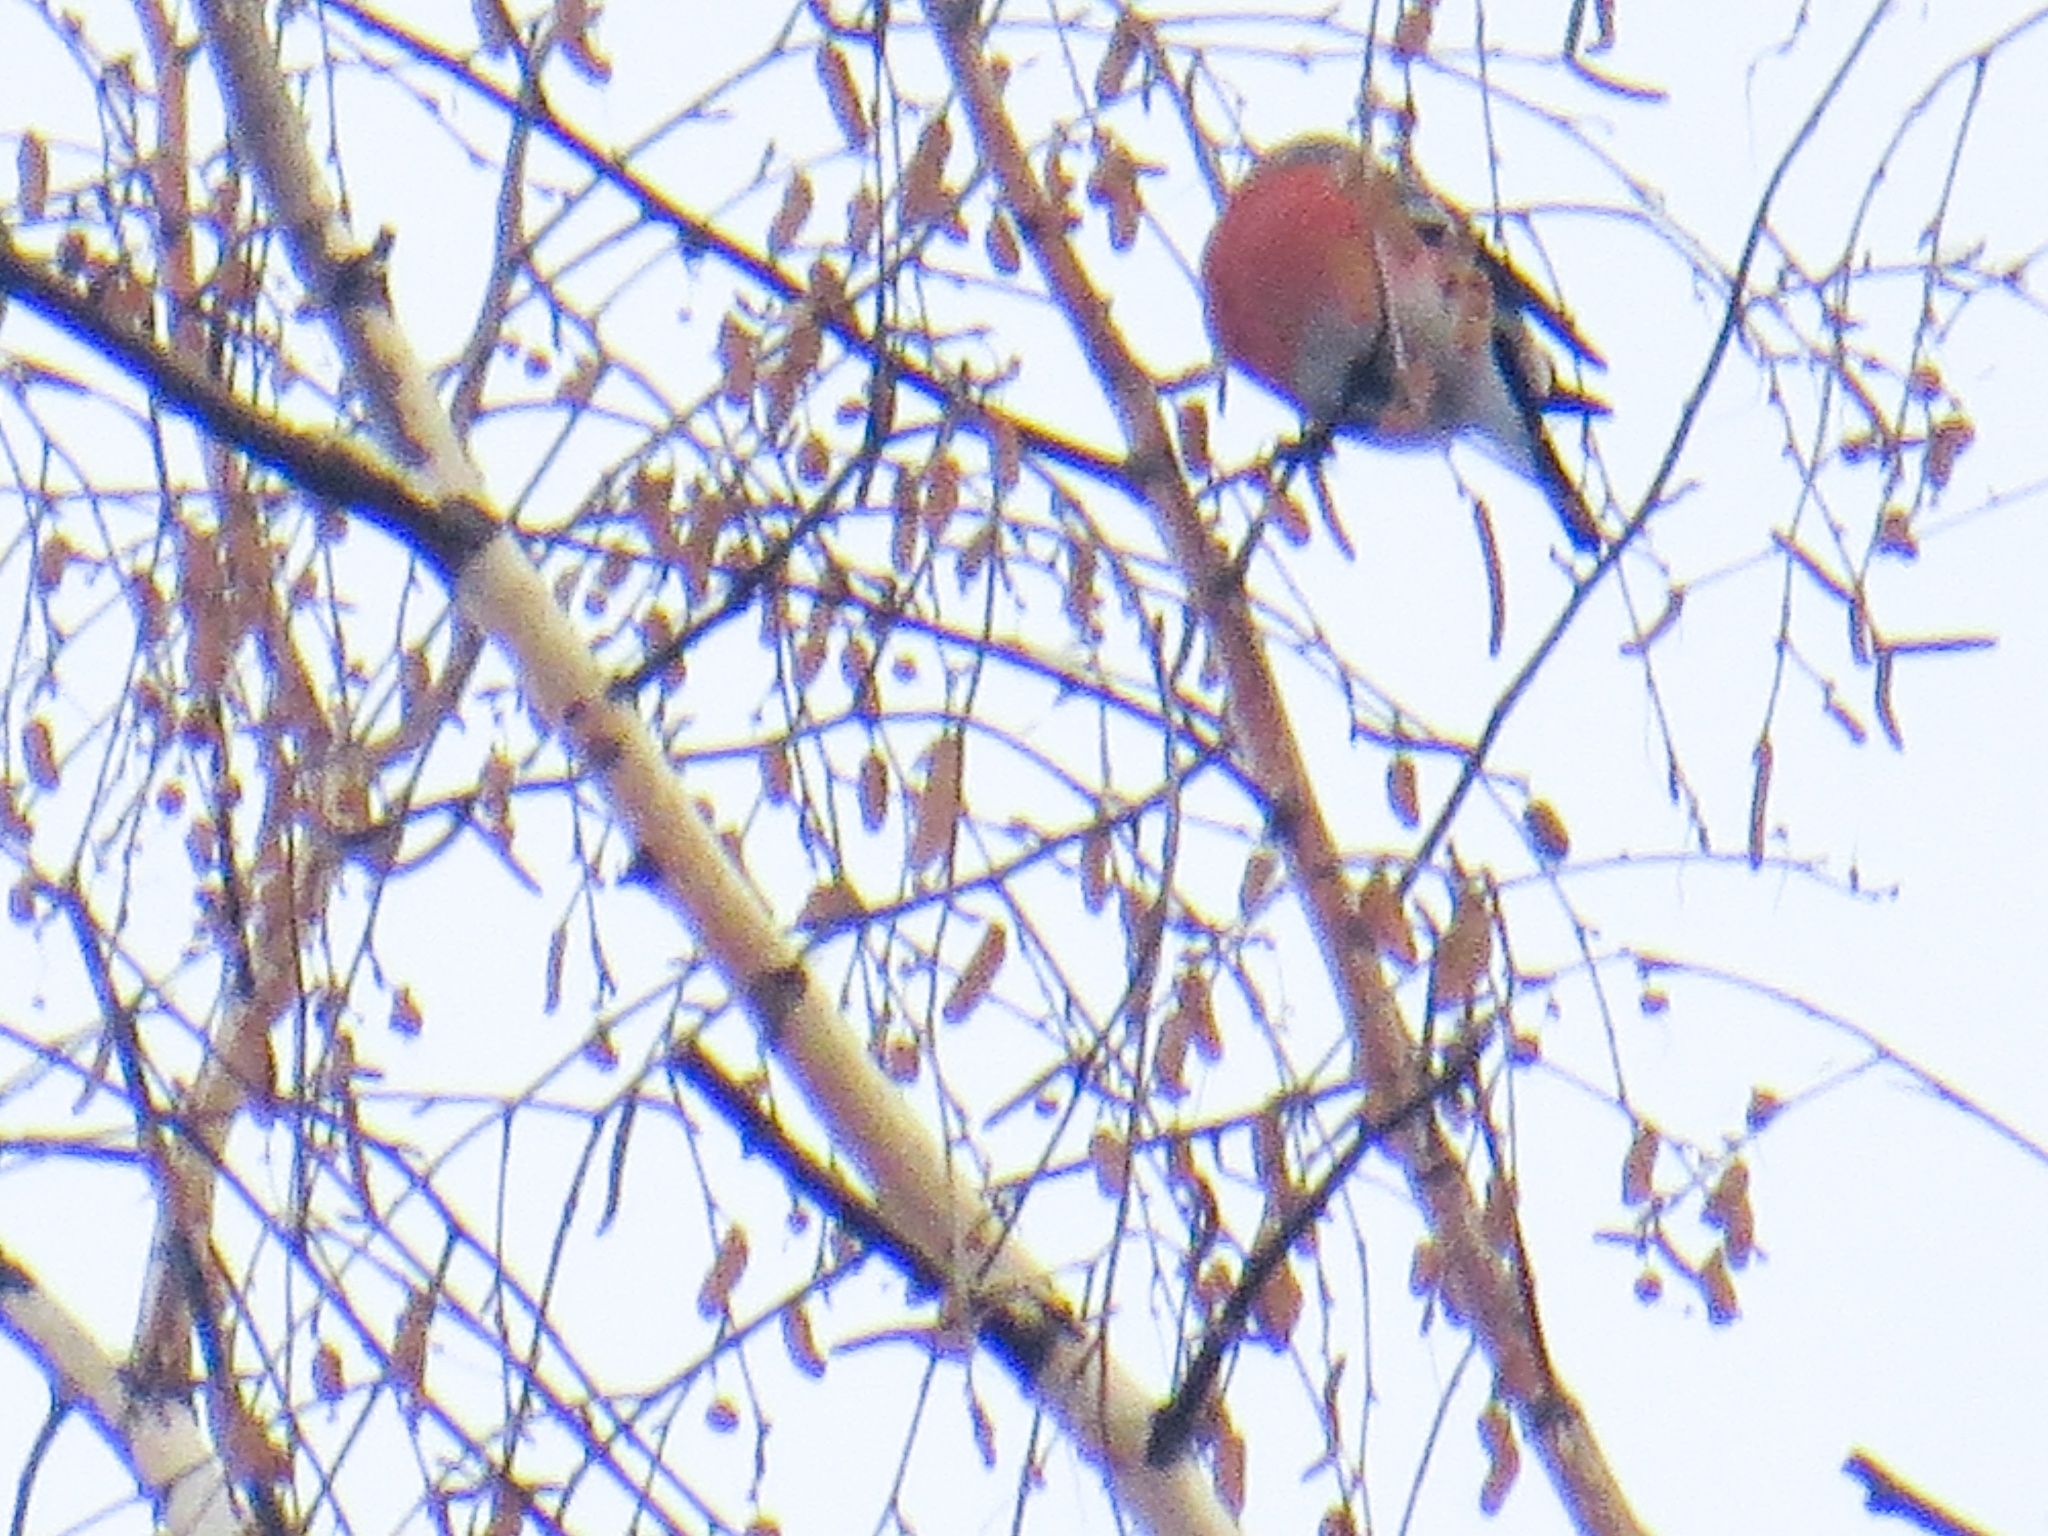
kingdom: Animalia
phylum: Chordata
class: Aves
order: Passeriformes
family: Fringillidae
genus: Pyrrhula
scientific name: Pyrrhula pyrrhula
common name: Eurasian bullfinch
